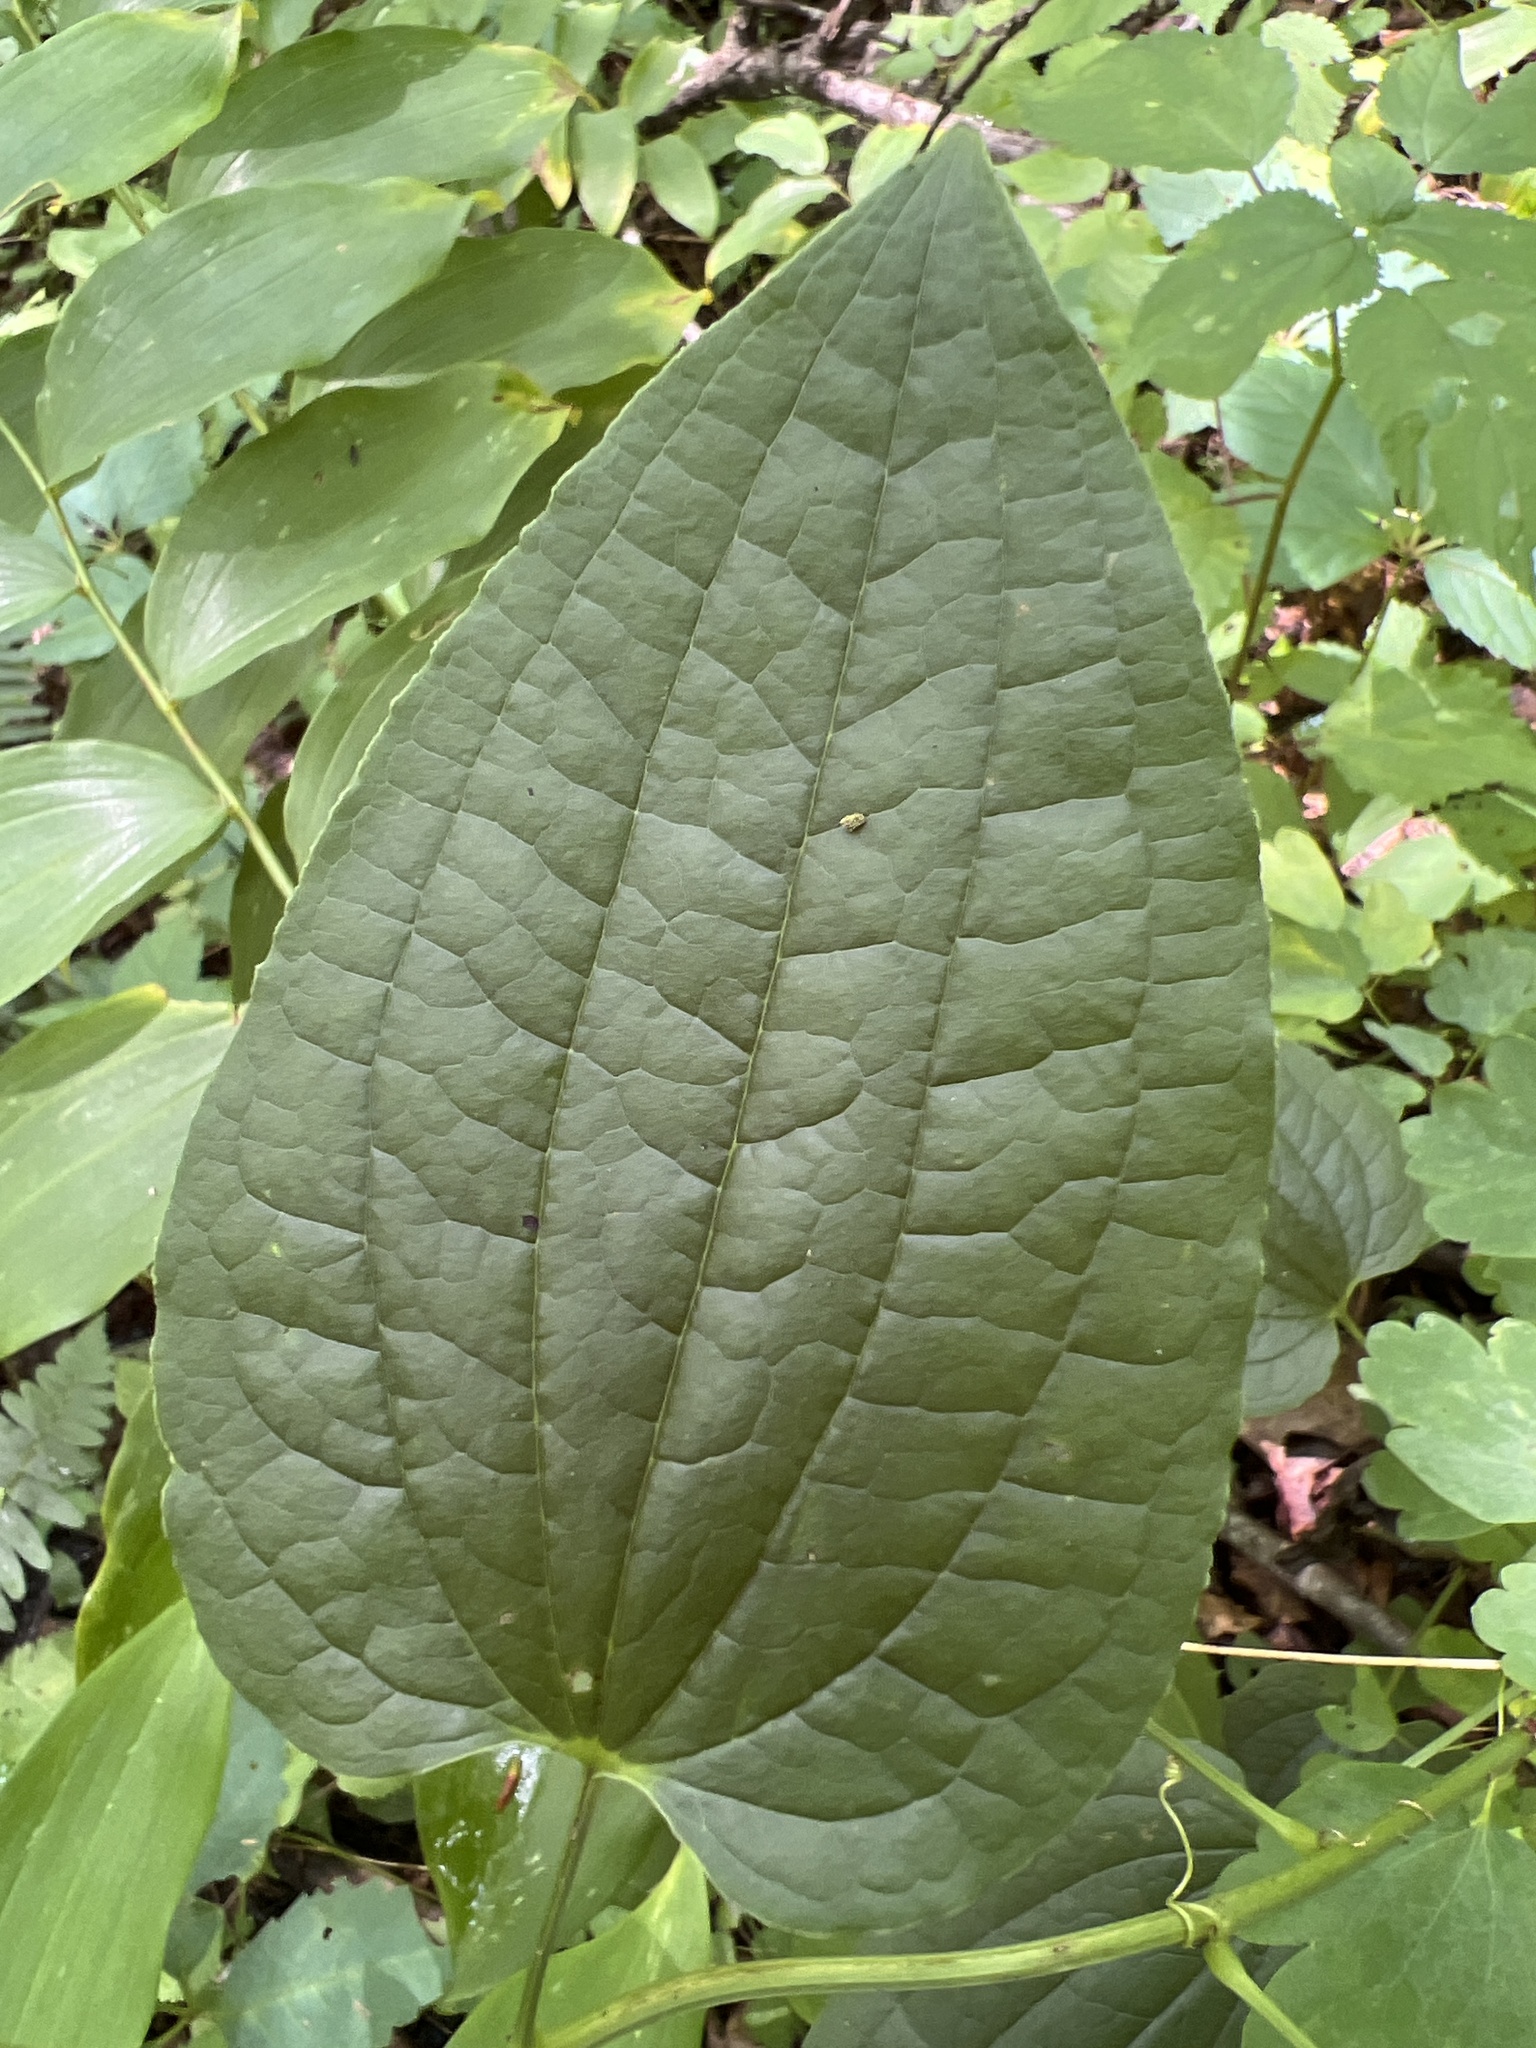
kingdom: Plantae
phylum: Tracheophyta
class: Liliopsida
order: Liliales
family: Smilacaceae
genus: Smilax
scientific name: Smilax pulverulenta
